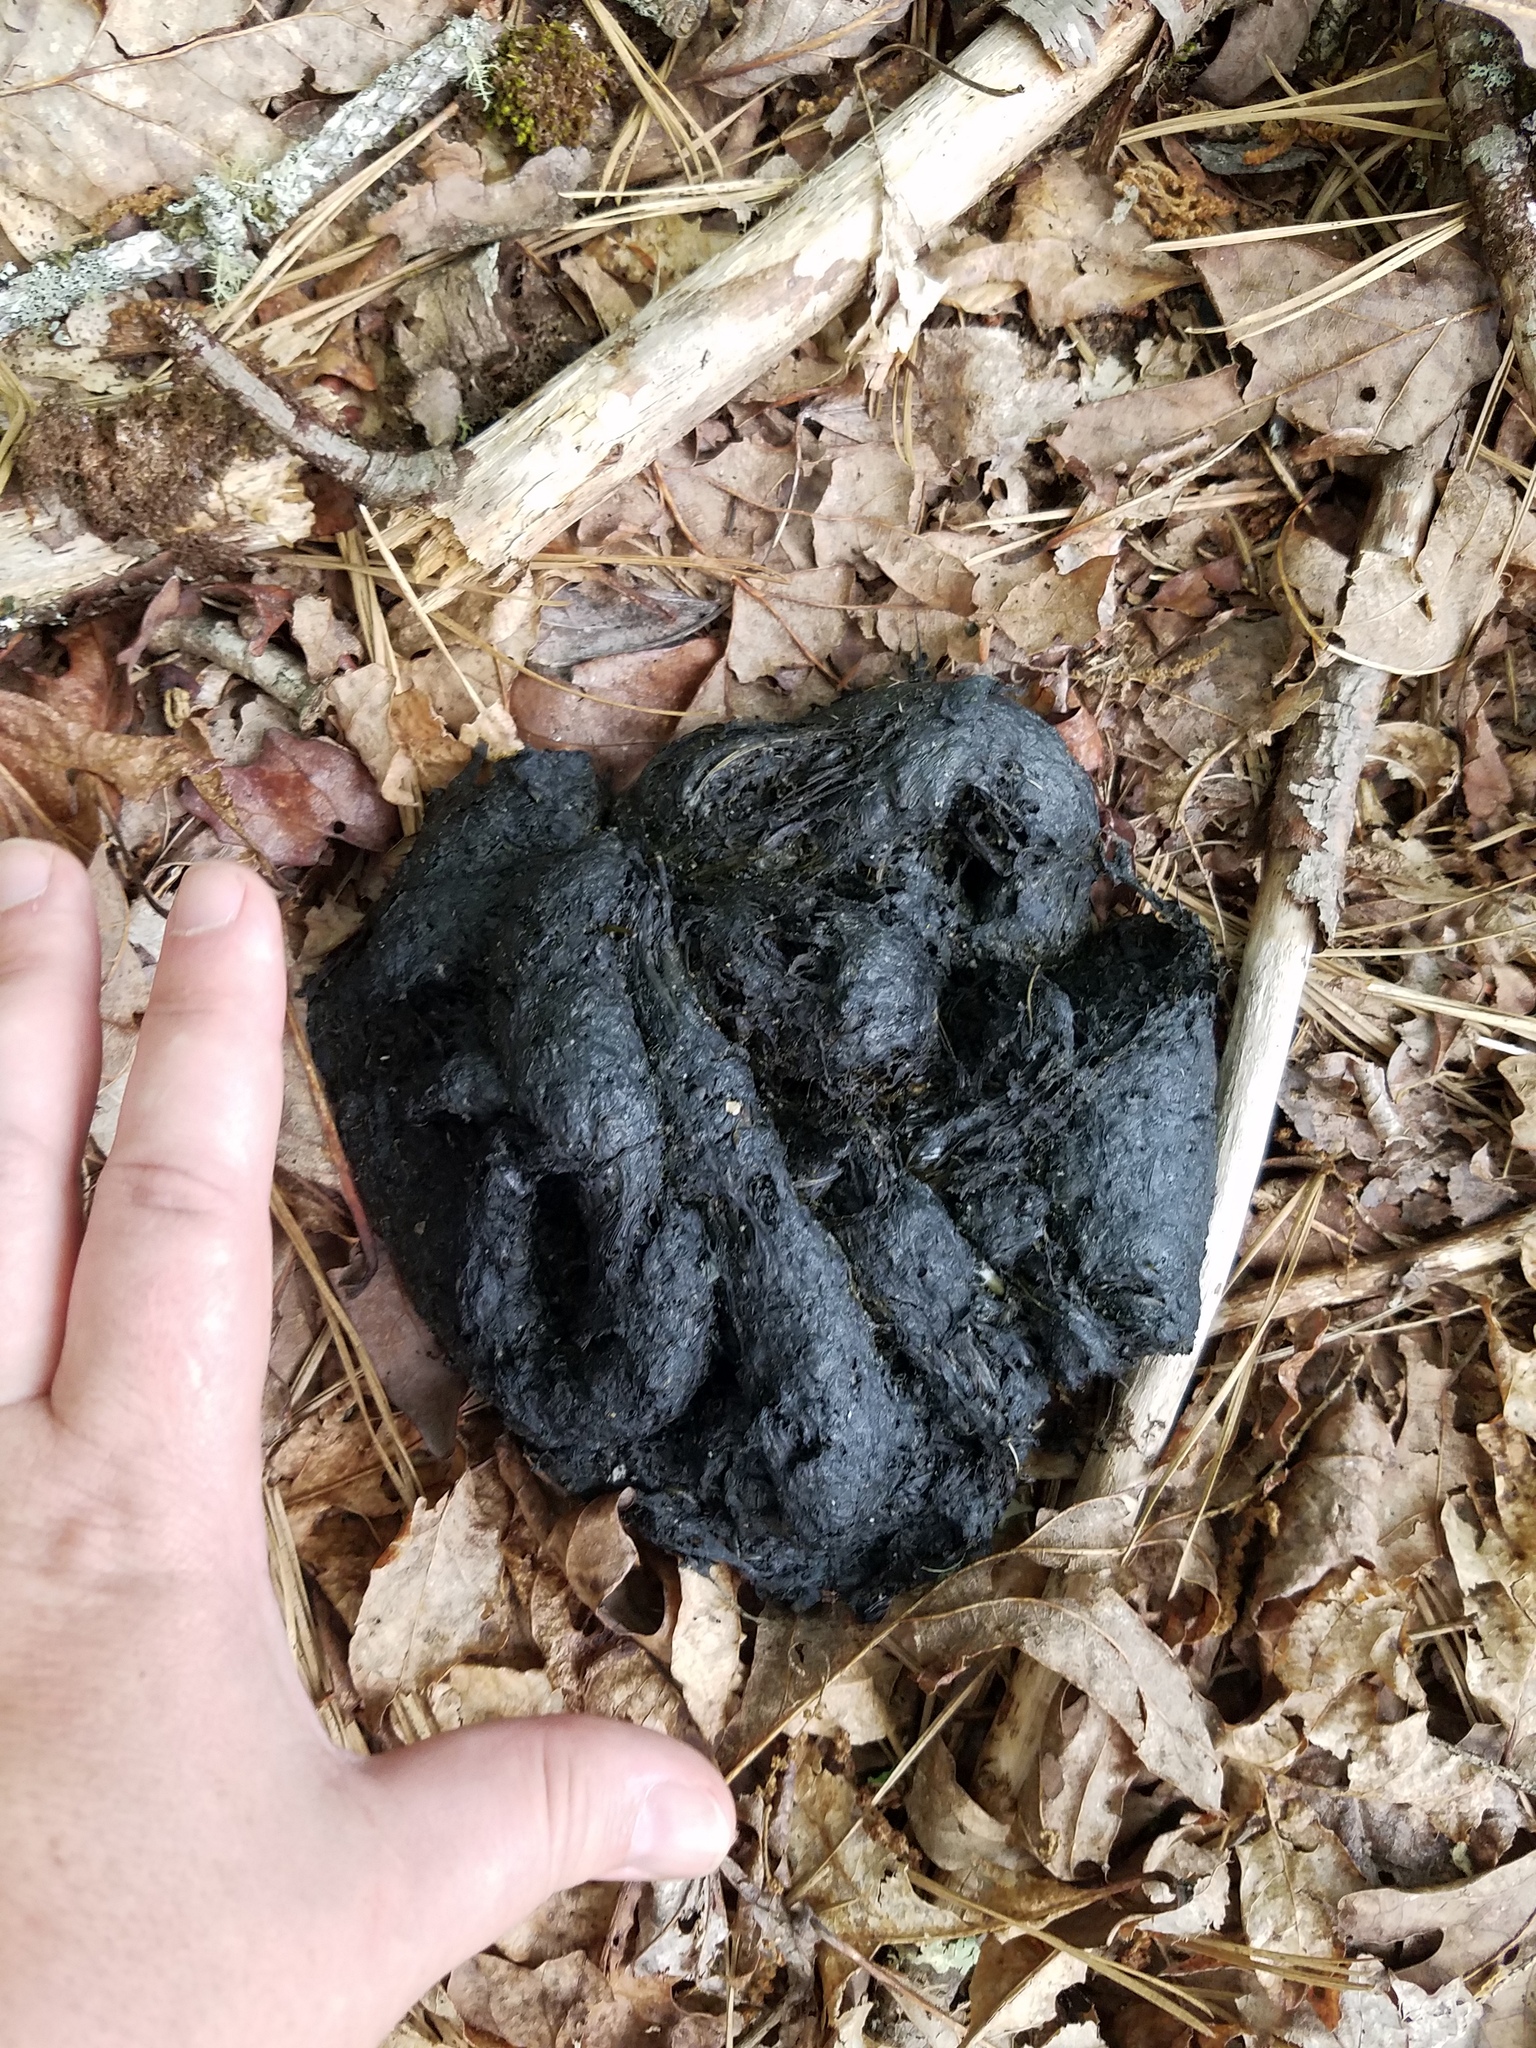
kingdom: Animalia
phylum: Chordata
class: Mammalia
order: Carnivora
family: Ursidae
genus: Ursus
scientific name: Ursus americanus
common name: American black bear
